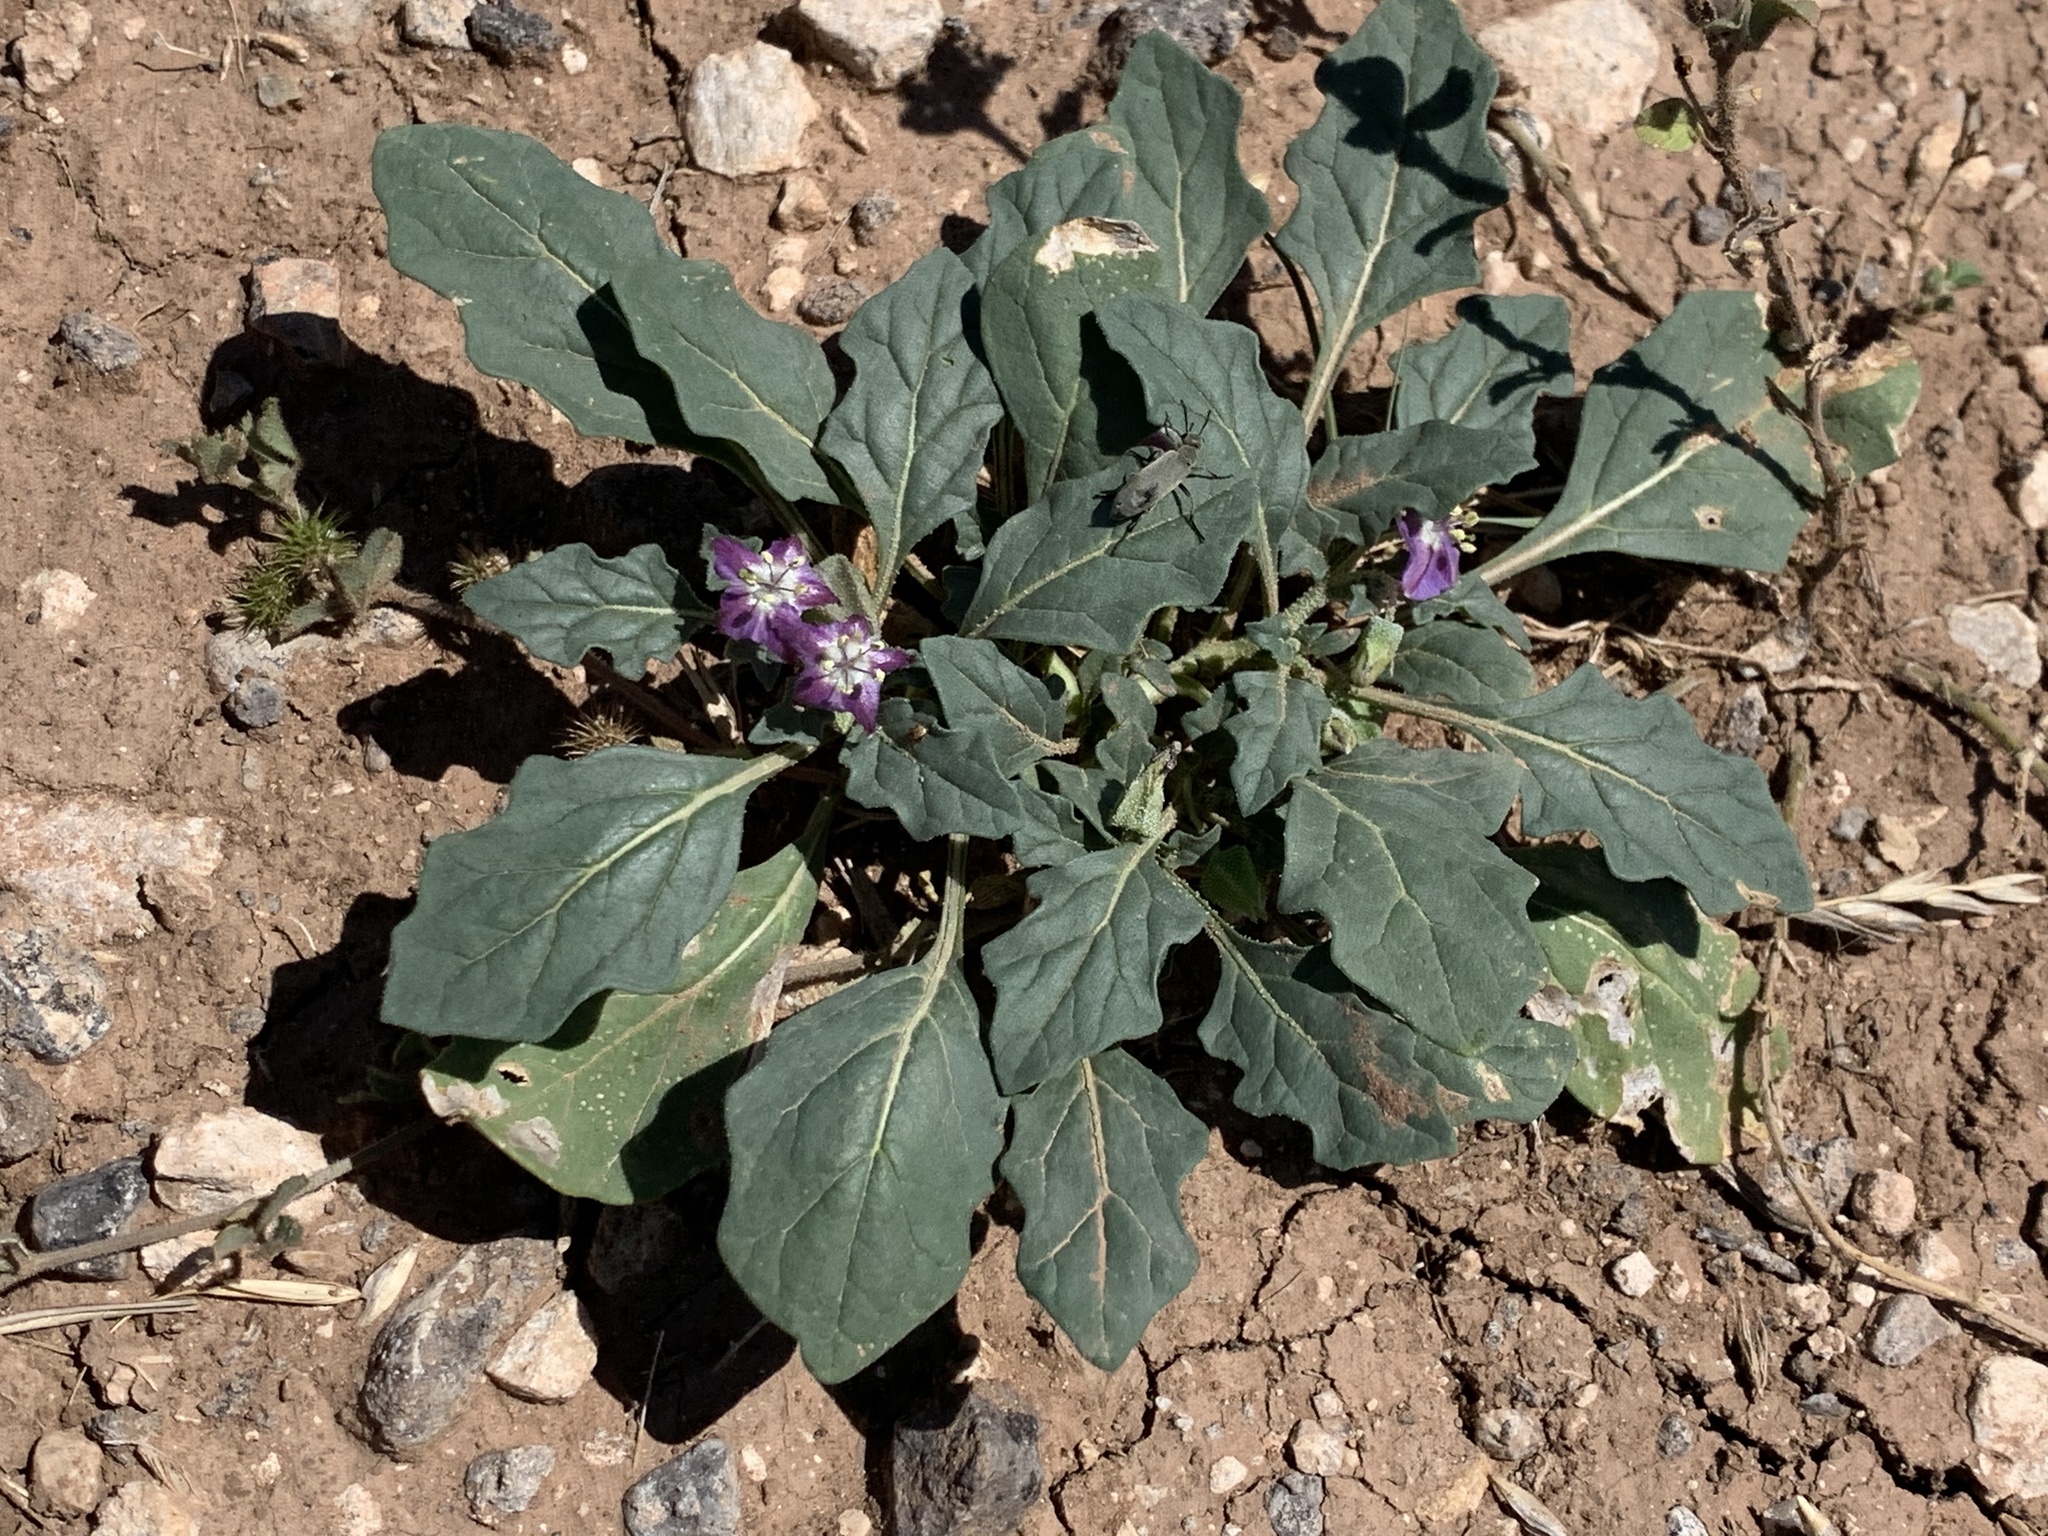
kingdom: Plantae
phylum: Tracheophyta
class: Magnoliopsida
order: Solanales
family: Solanaceae
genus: Quincula
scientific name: Quincula lobata
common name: Purple-ground-cherry
